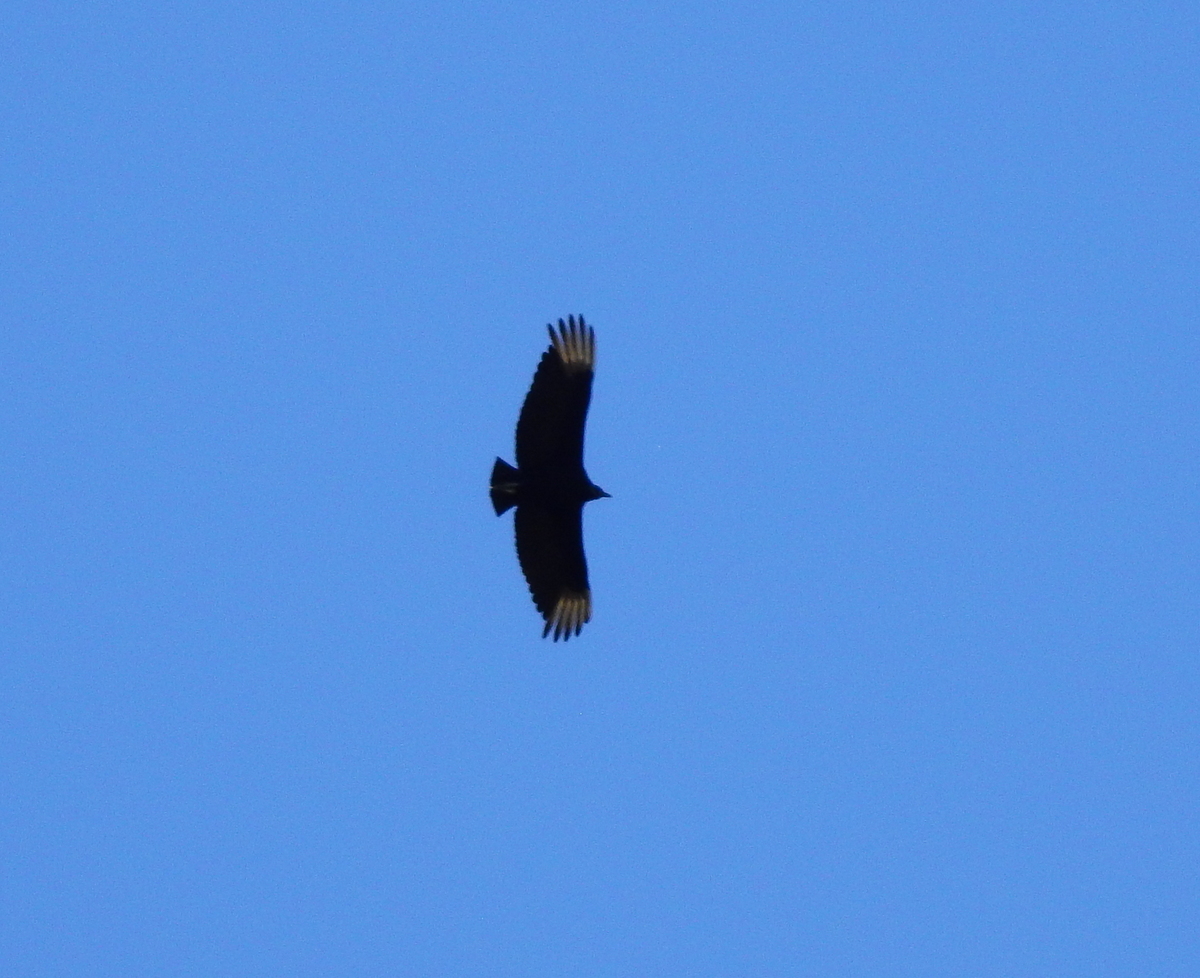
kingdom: Animalia
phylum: Chordata
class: Aves
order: Accipitriformes
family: Cathartidae
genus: Coragyps
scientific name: Coragyps atratus
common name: Black vulture
